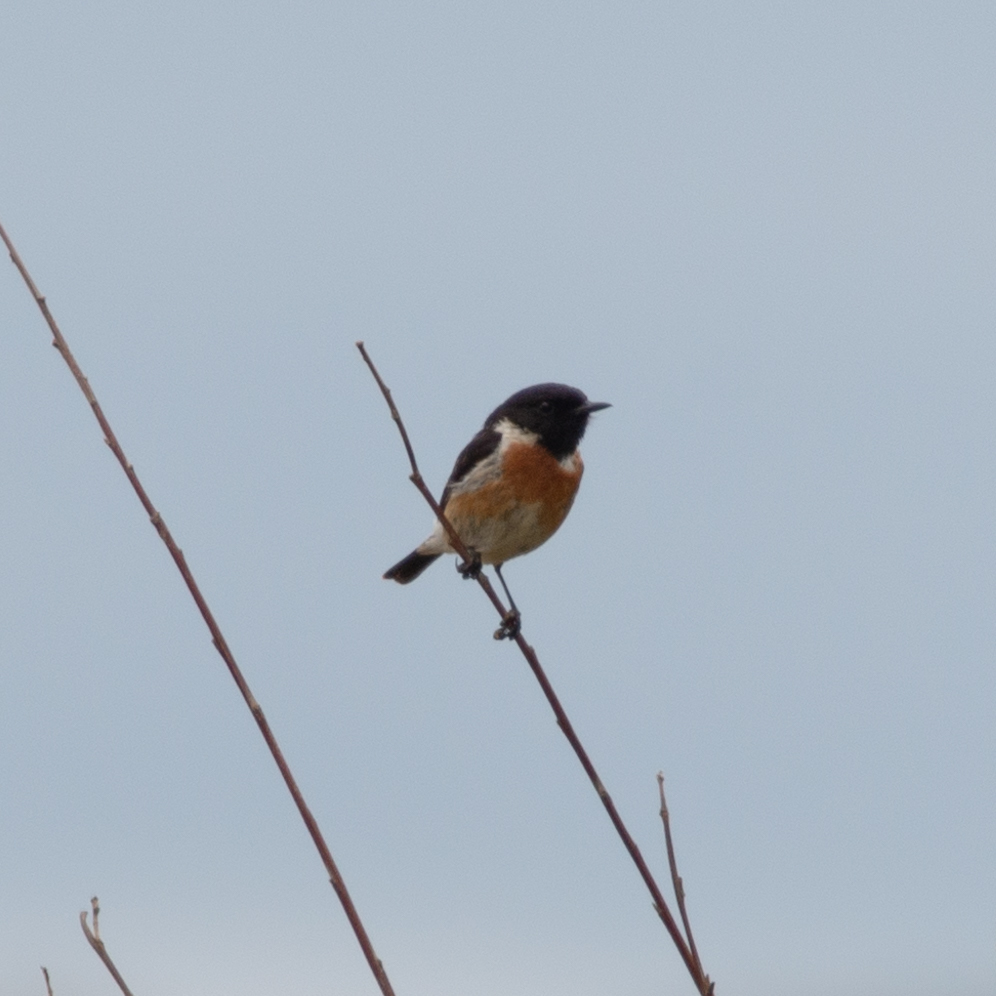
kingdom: Animalia
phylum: Chordata
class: Aves
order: Passeriformes
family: Muscicapidae
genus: Saxicola
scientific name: Saxicola rubicola
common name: European stonechat
